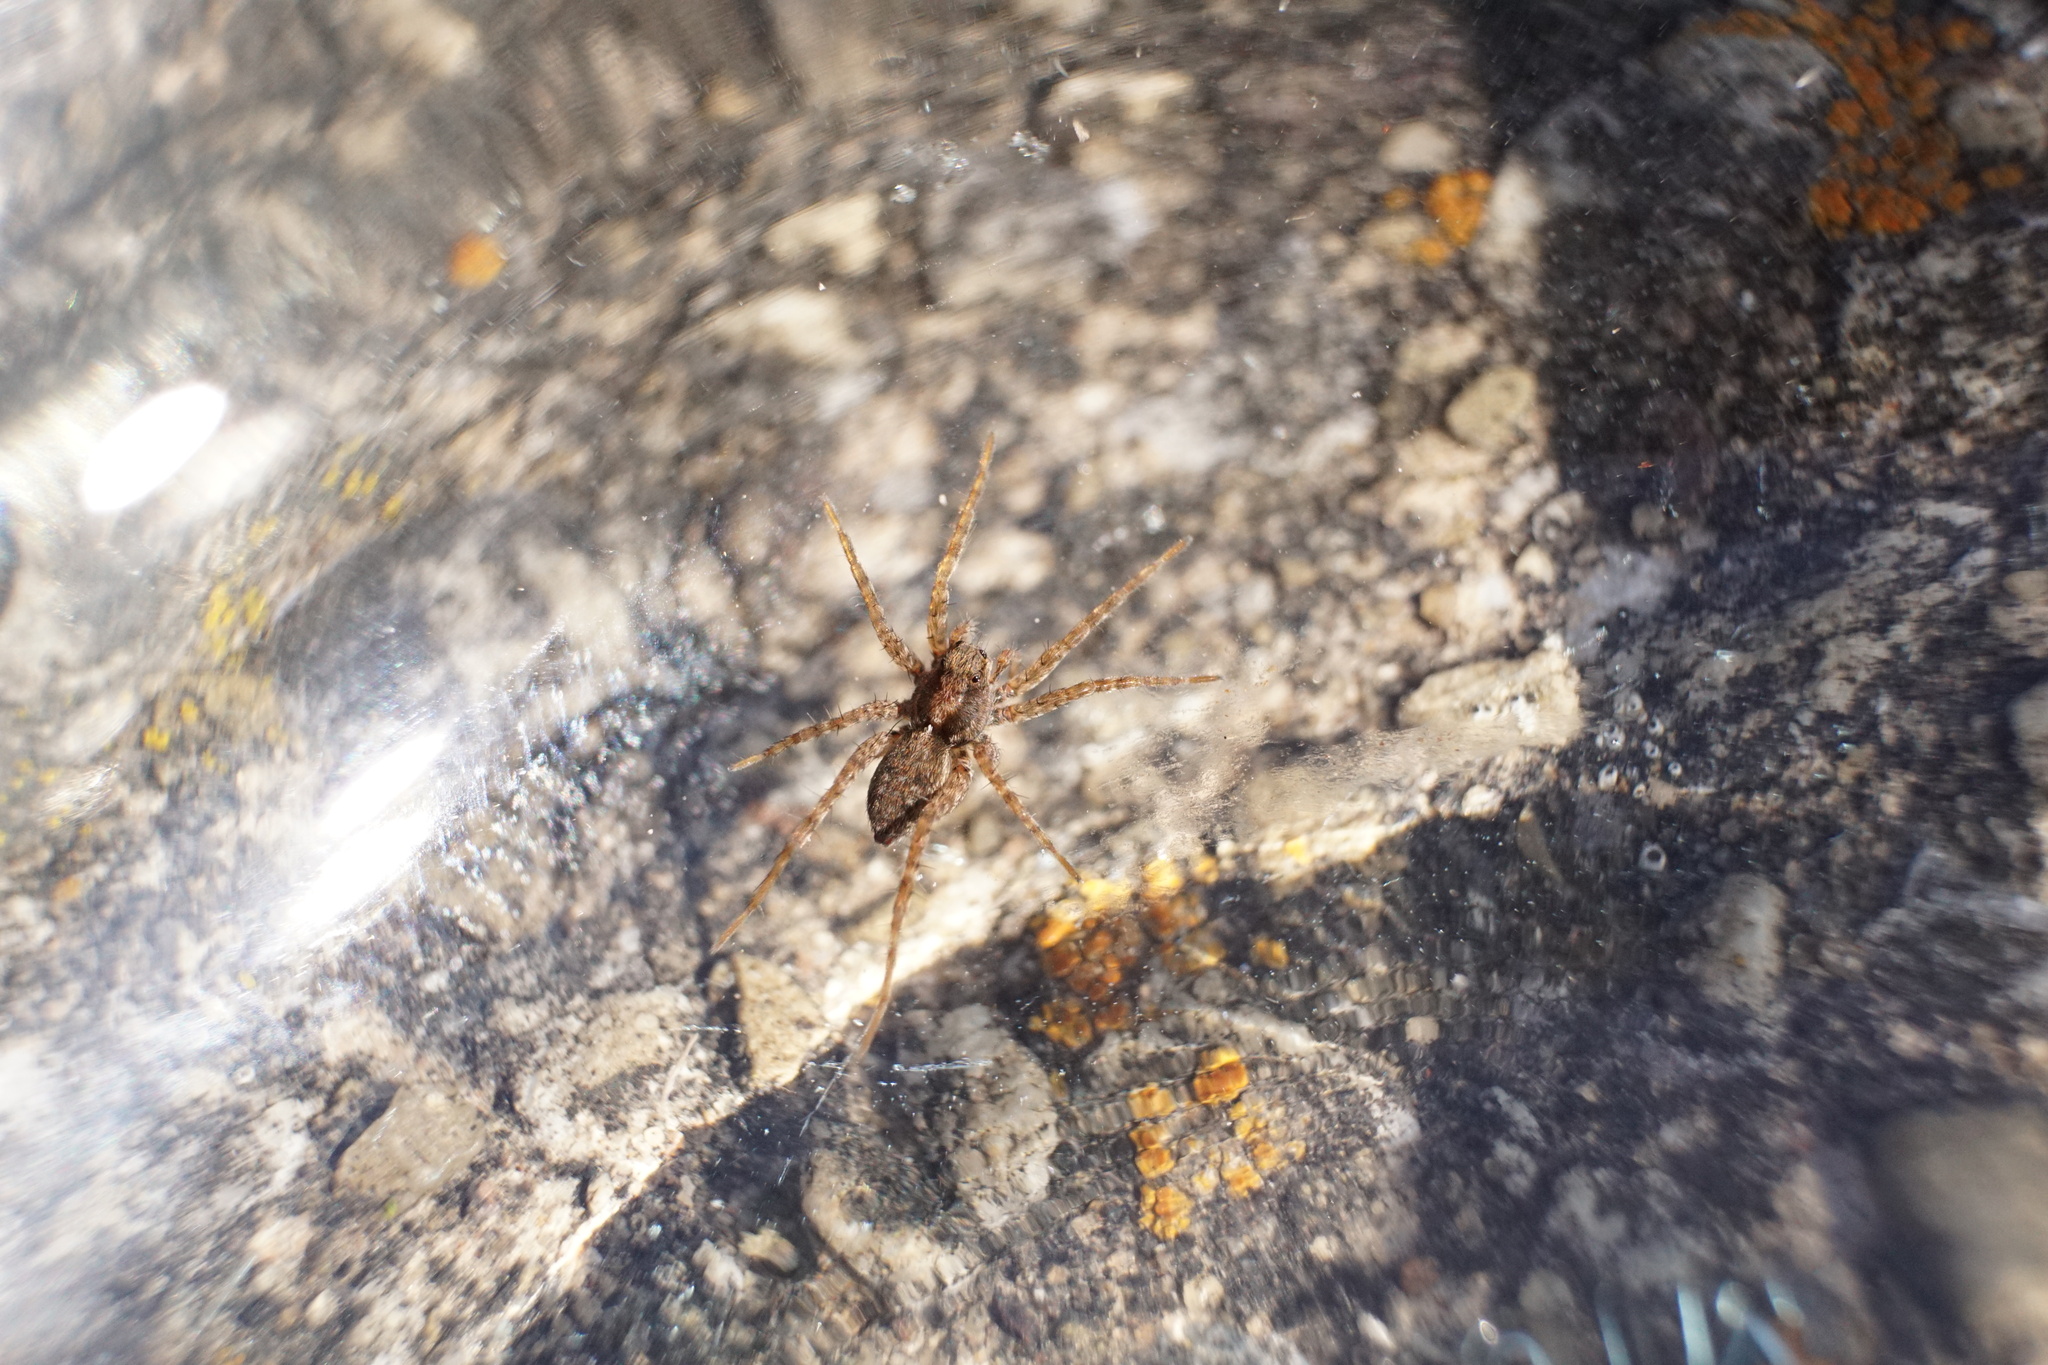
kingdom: Animalia
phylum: Arthropoda
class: Arachnida
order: Araneae
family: Lycosidae
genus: Pardosa
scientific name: Pardosa milvina
